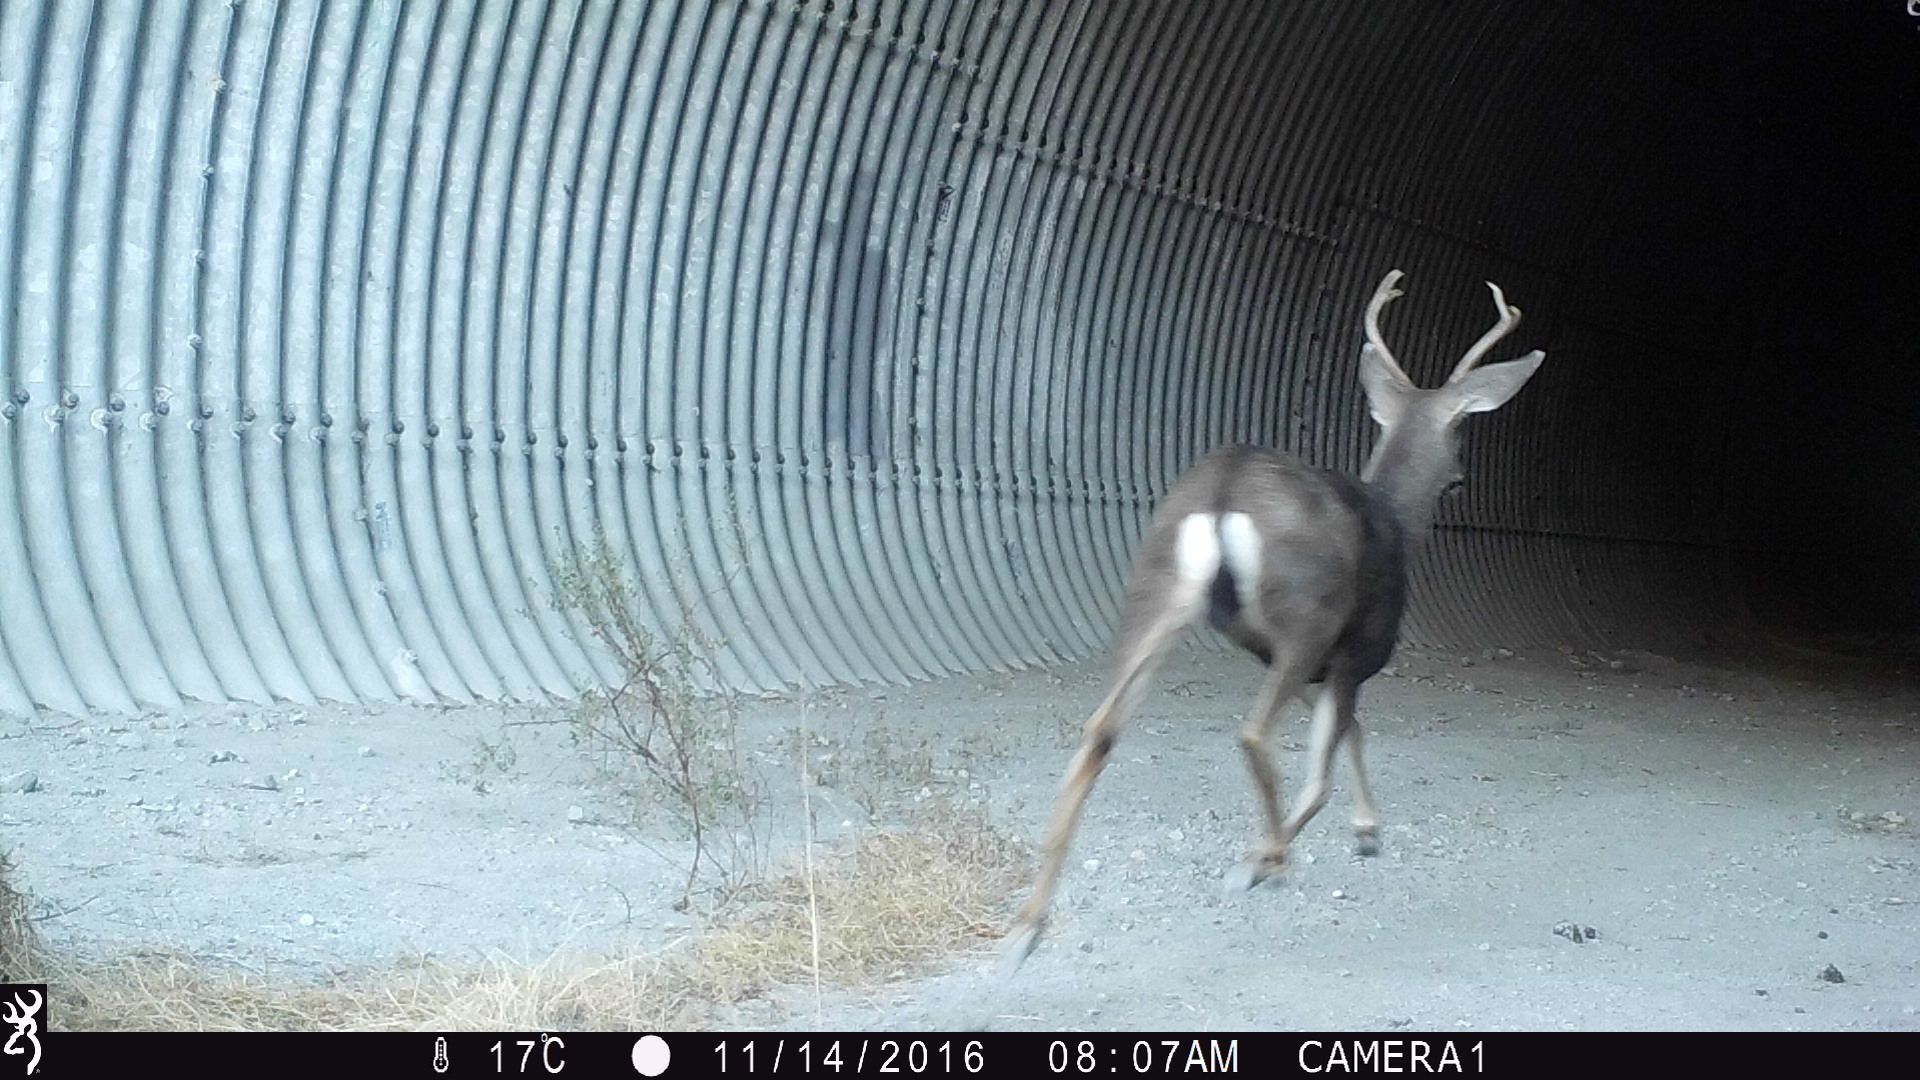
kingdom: Animalia
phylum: Chordata
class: Mammalia
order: Artiodactyla
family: Cervidae
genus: Odocoileus
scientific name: Odocoileus hemionus
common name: Mule deer
